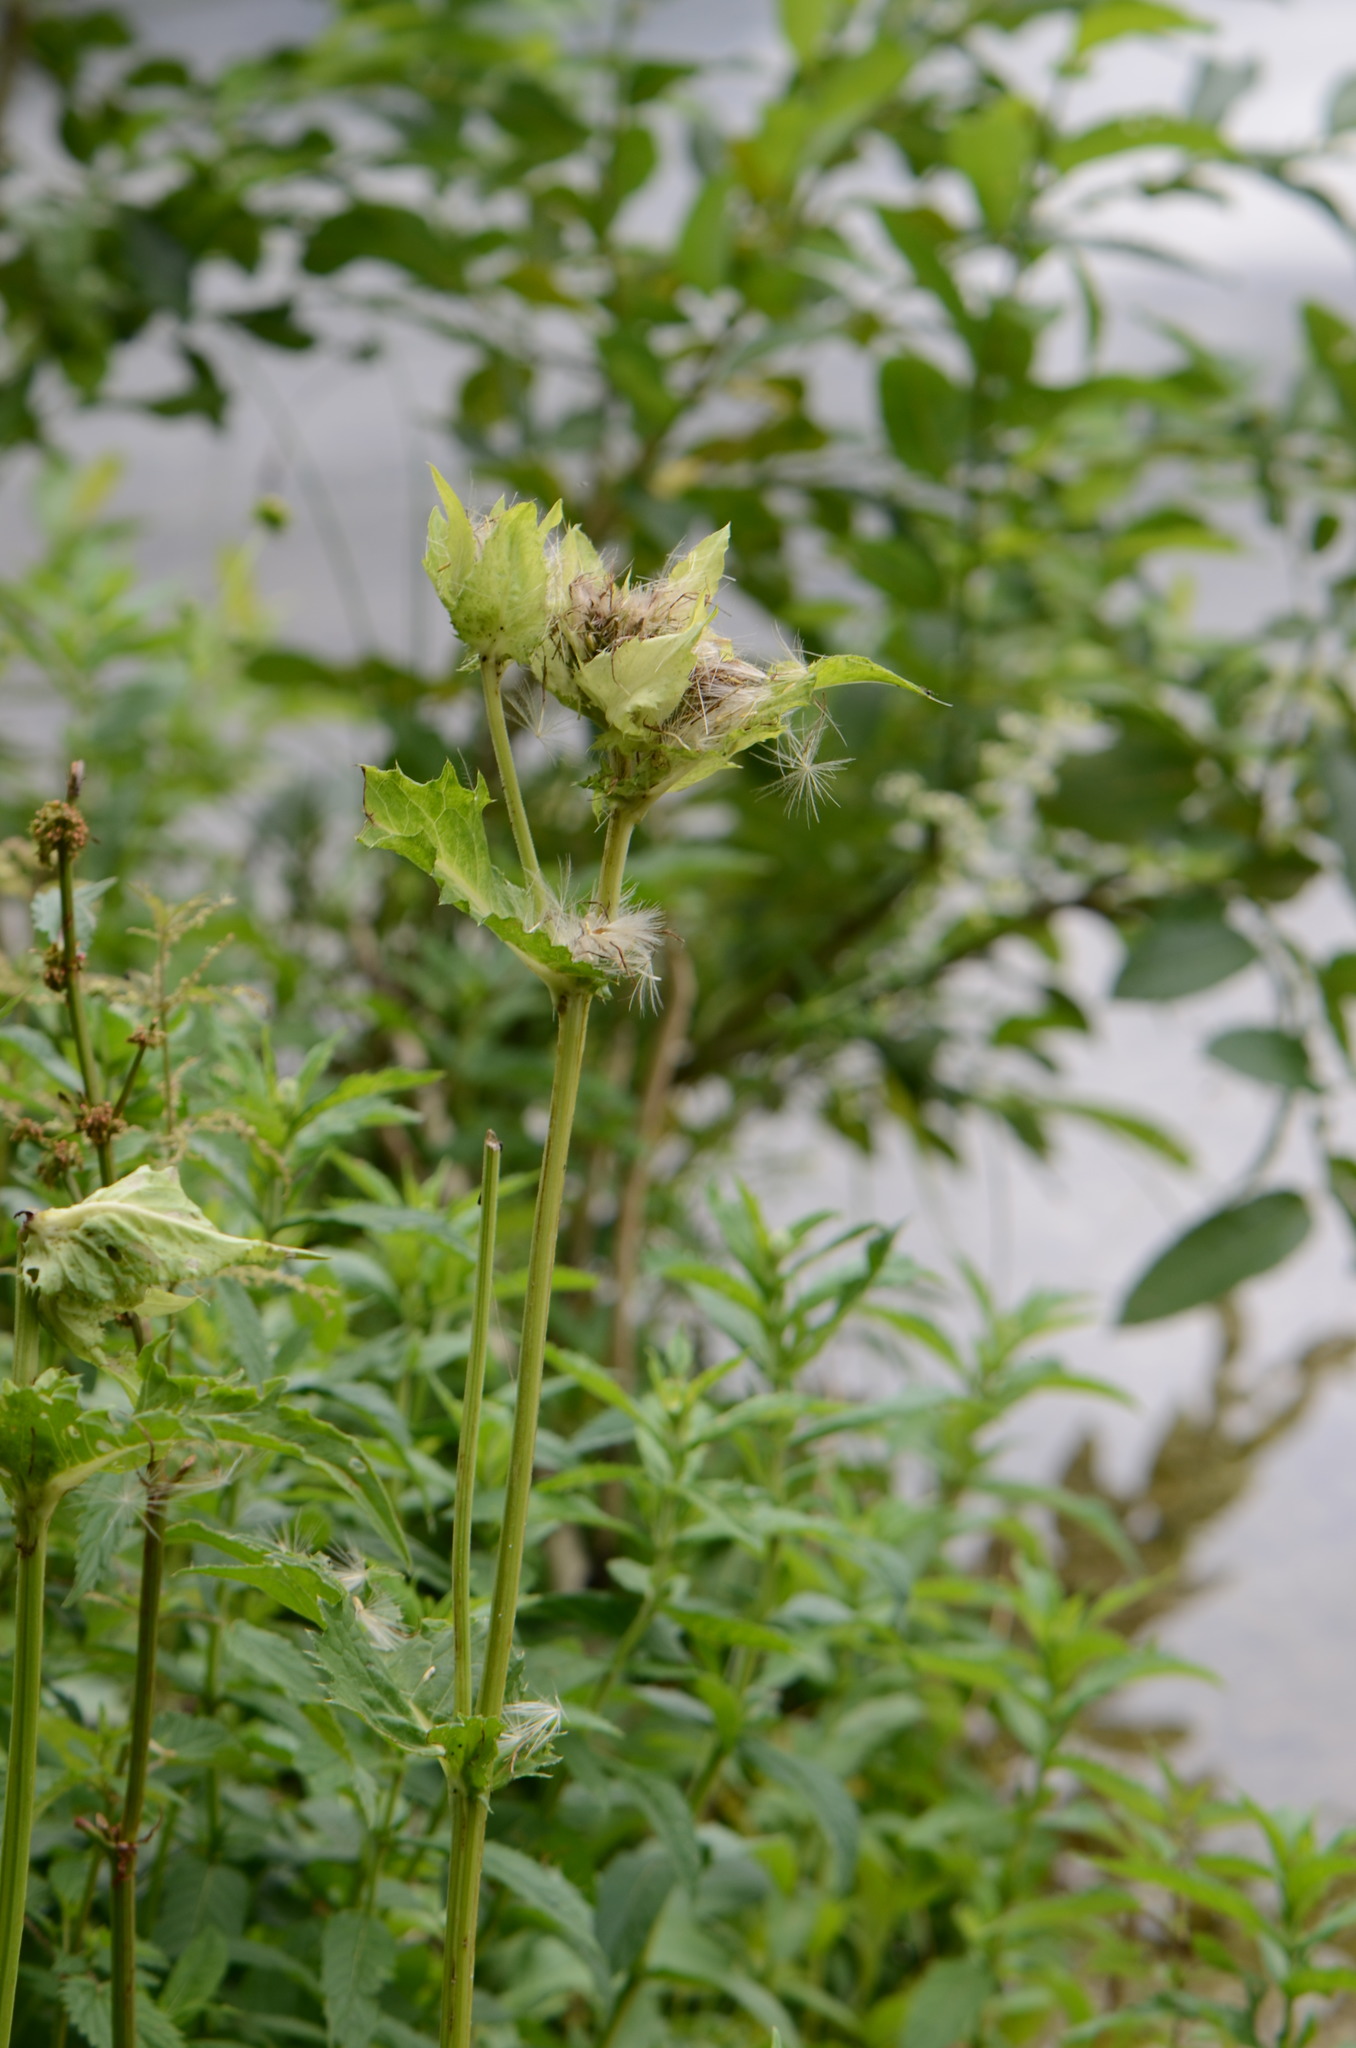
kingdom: Plantae
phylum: Tracheophyta
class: Magnoliopsida
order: Asterales
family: Asteraceae
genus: Cirsium
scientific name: Cirsium oleraceum
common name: Cabbage thistle
